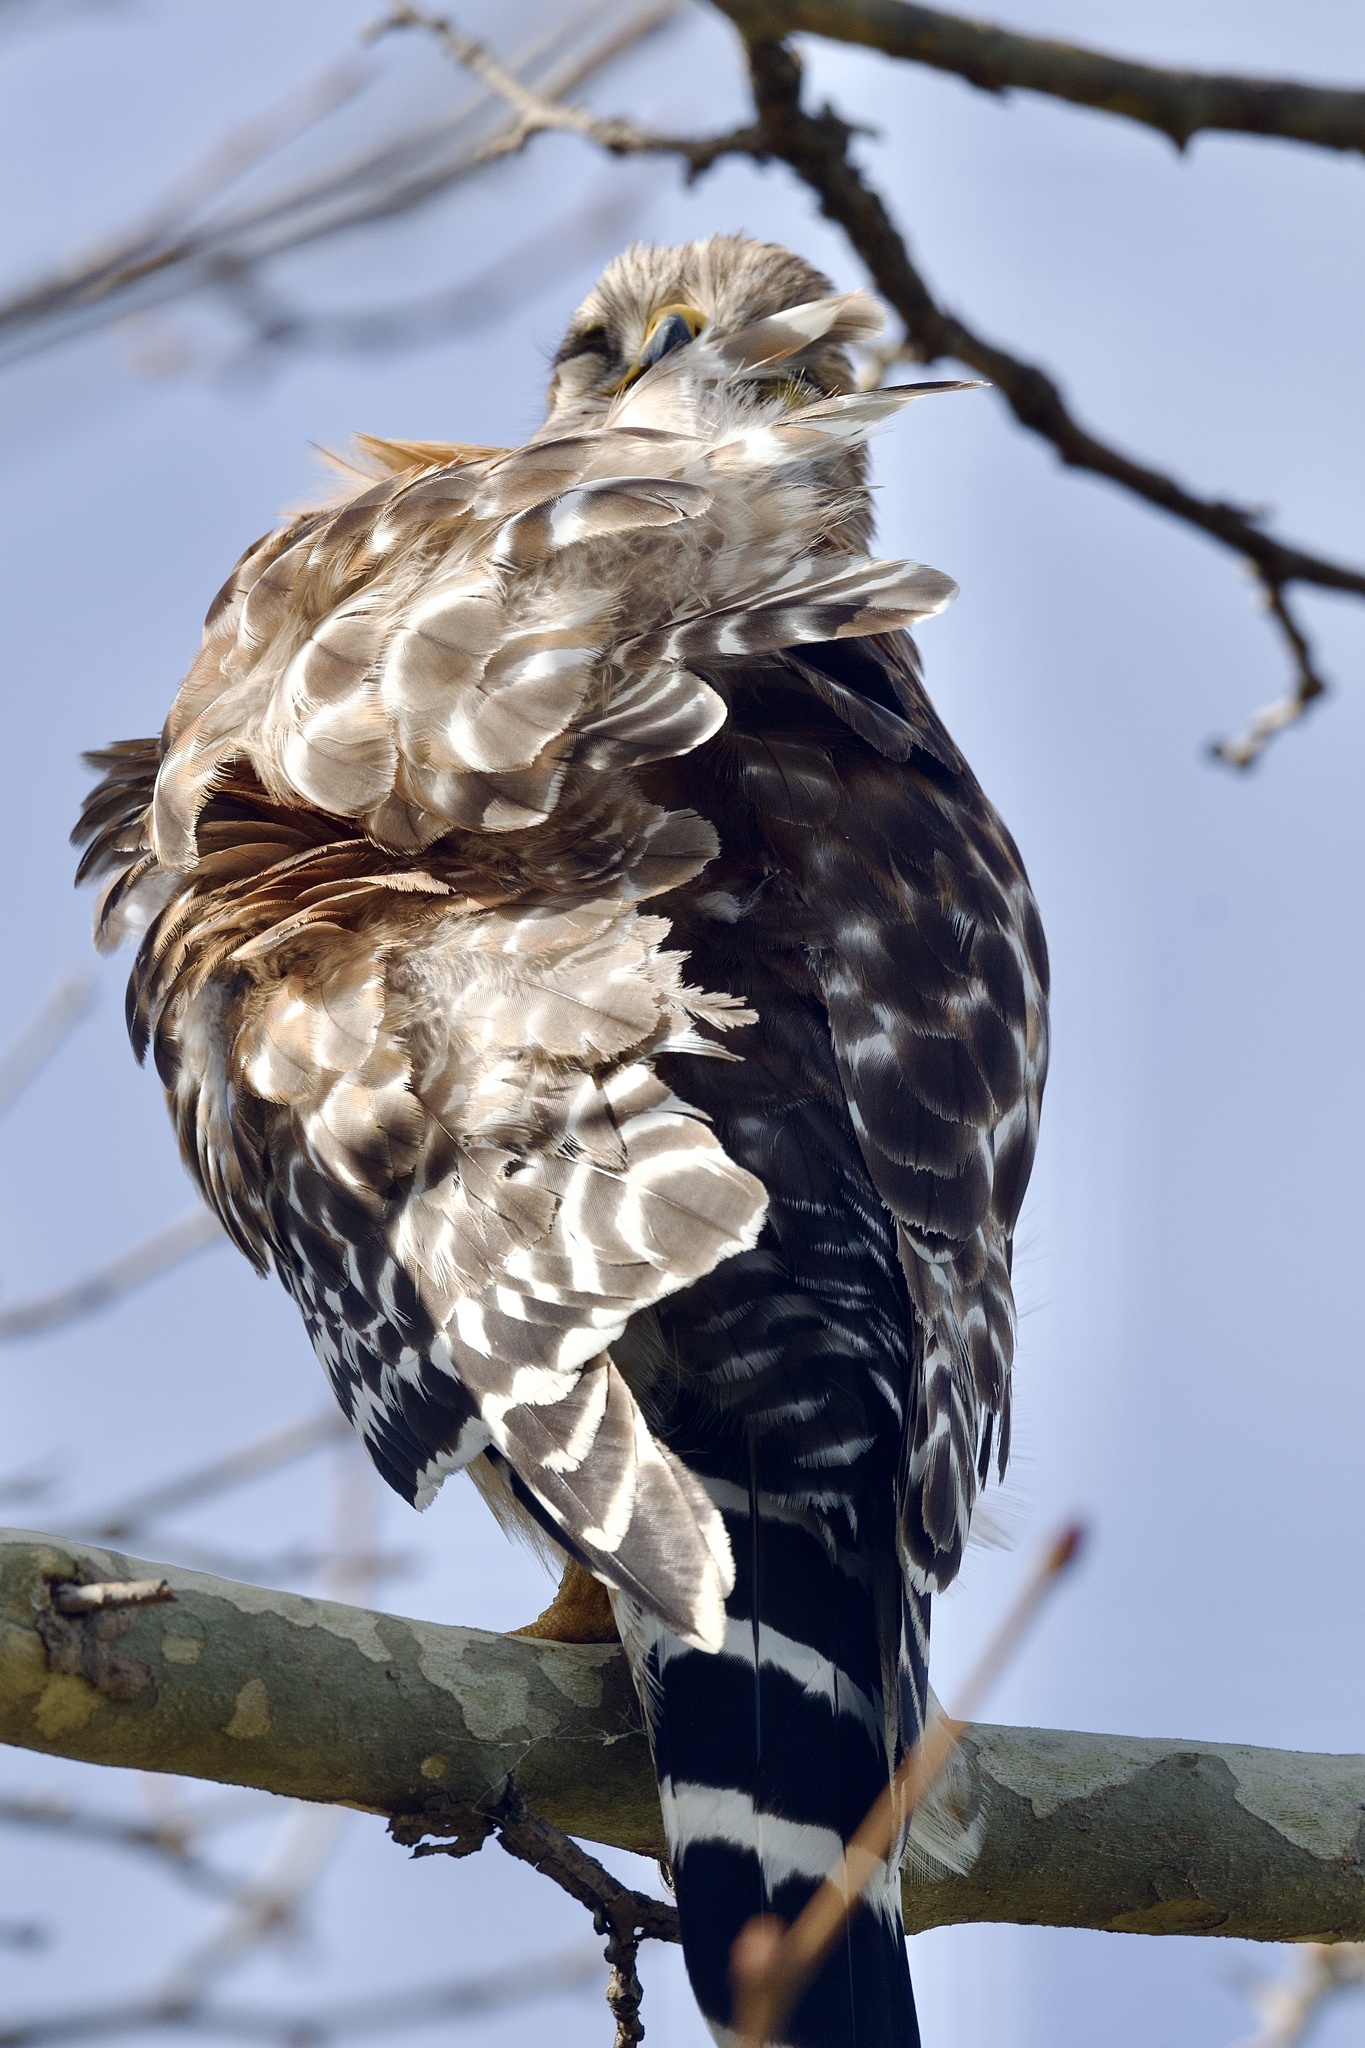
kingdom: Animalia
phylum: Chordata
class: Aves
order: Accipitriformes
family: Accipitridae
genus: Buteo
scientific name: Buteo lineatus
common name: Red-shouldered hawk
